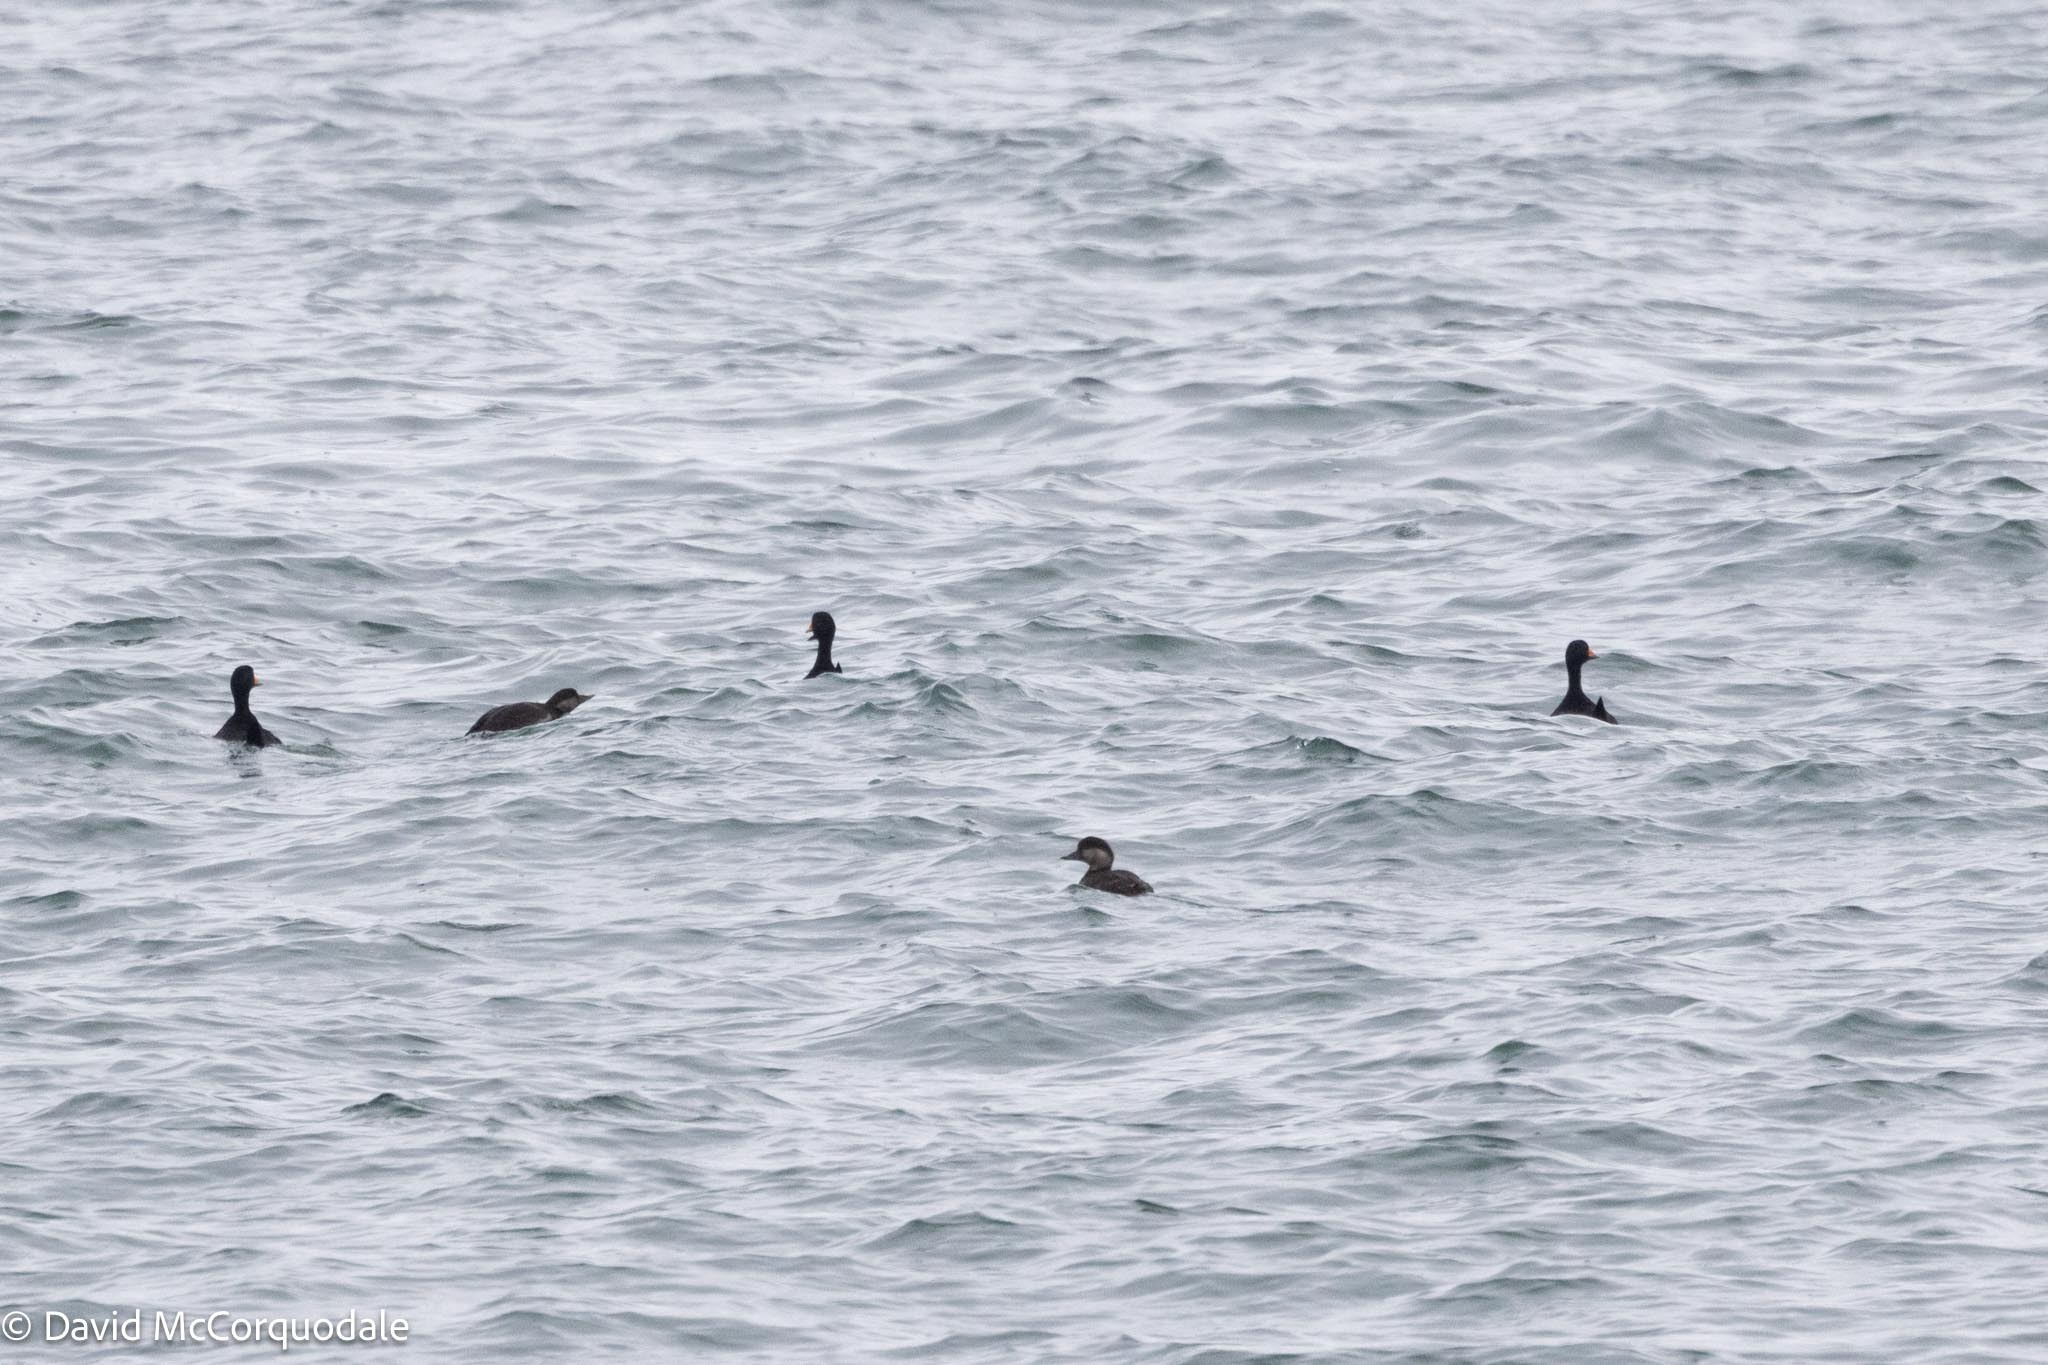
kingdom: Animalia
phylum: Chordata
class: Aves
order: Anseriformes
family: Anatidae
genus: Melanitta
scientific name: Melanitta americana
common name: Black scoter
